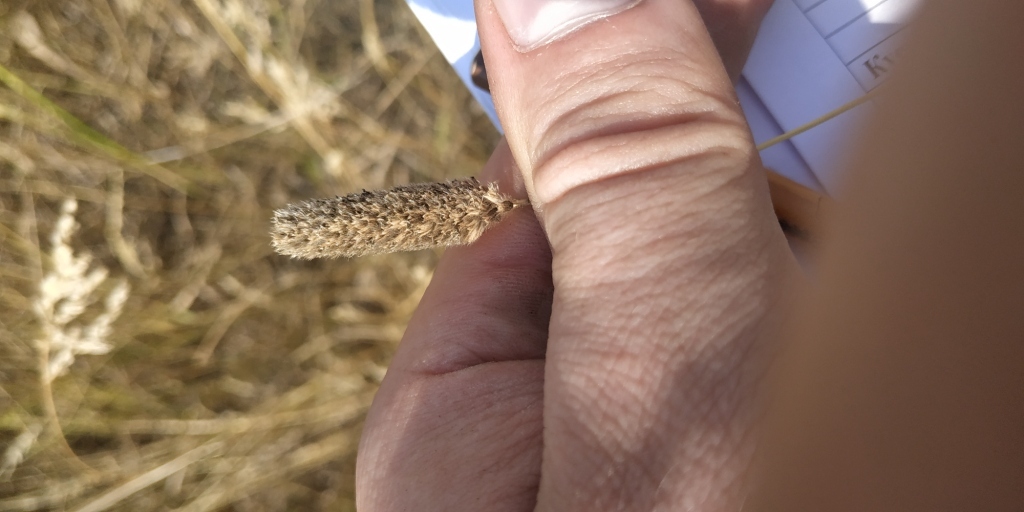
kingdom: Plantae
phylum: Tracheophyta
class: Liliopsida
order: Poales
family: Poaceae
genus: Phleum
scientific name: Phleum pratense
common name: Timothy grass
